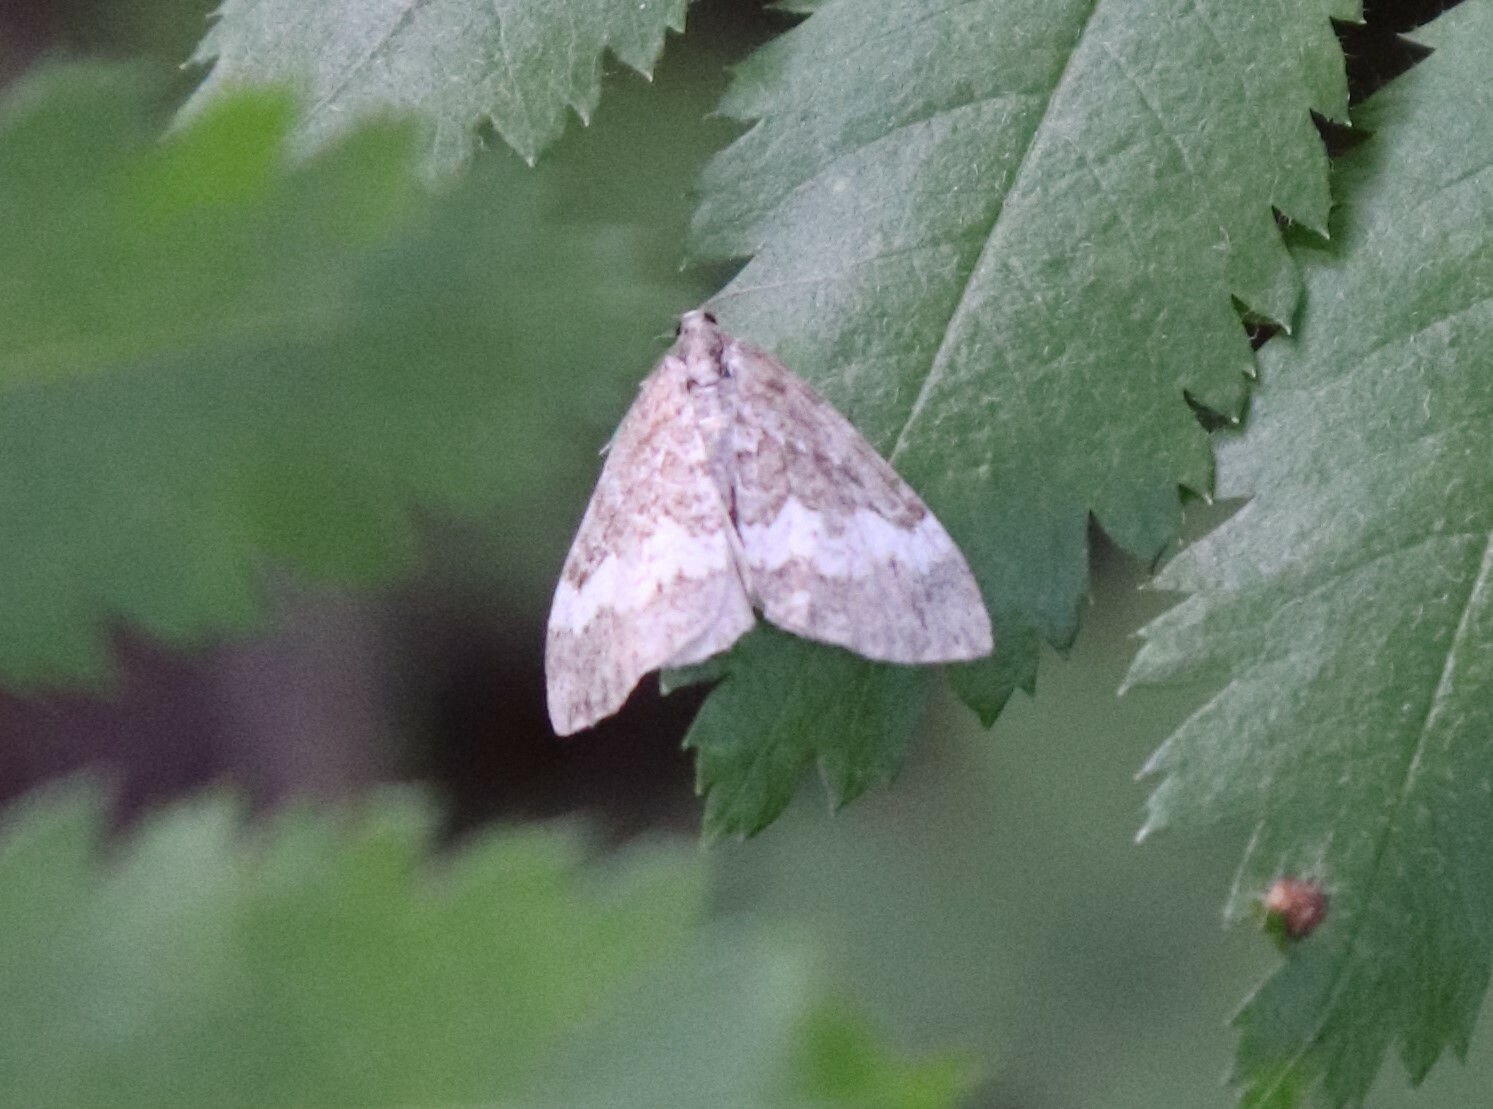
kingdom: Animalia
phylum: Arthropoda
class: Insecta
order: Lepidoptera
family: Geometridae
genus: Perizoma
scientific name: Perizoma affinitata
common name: Rivulet
